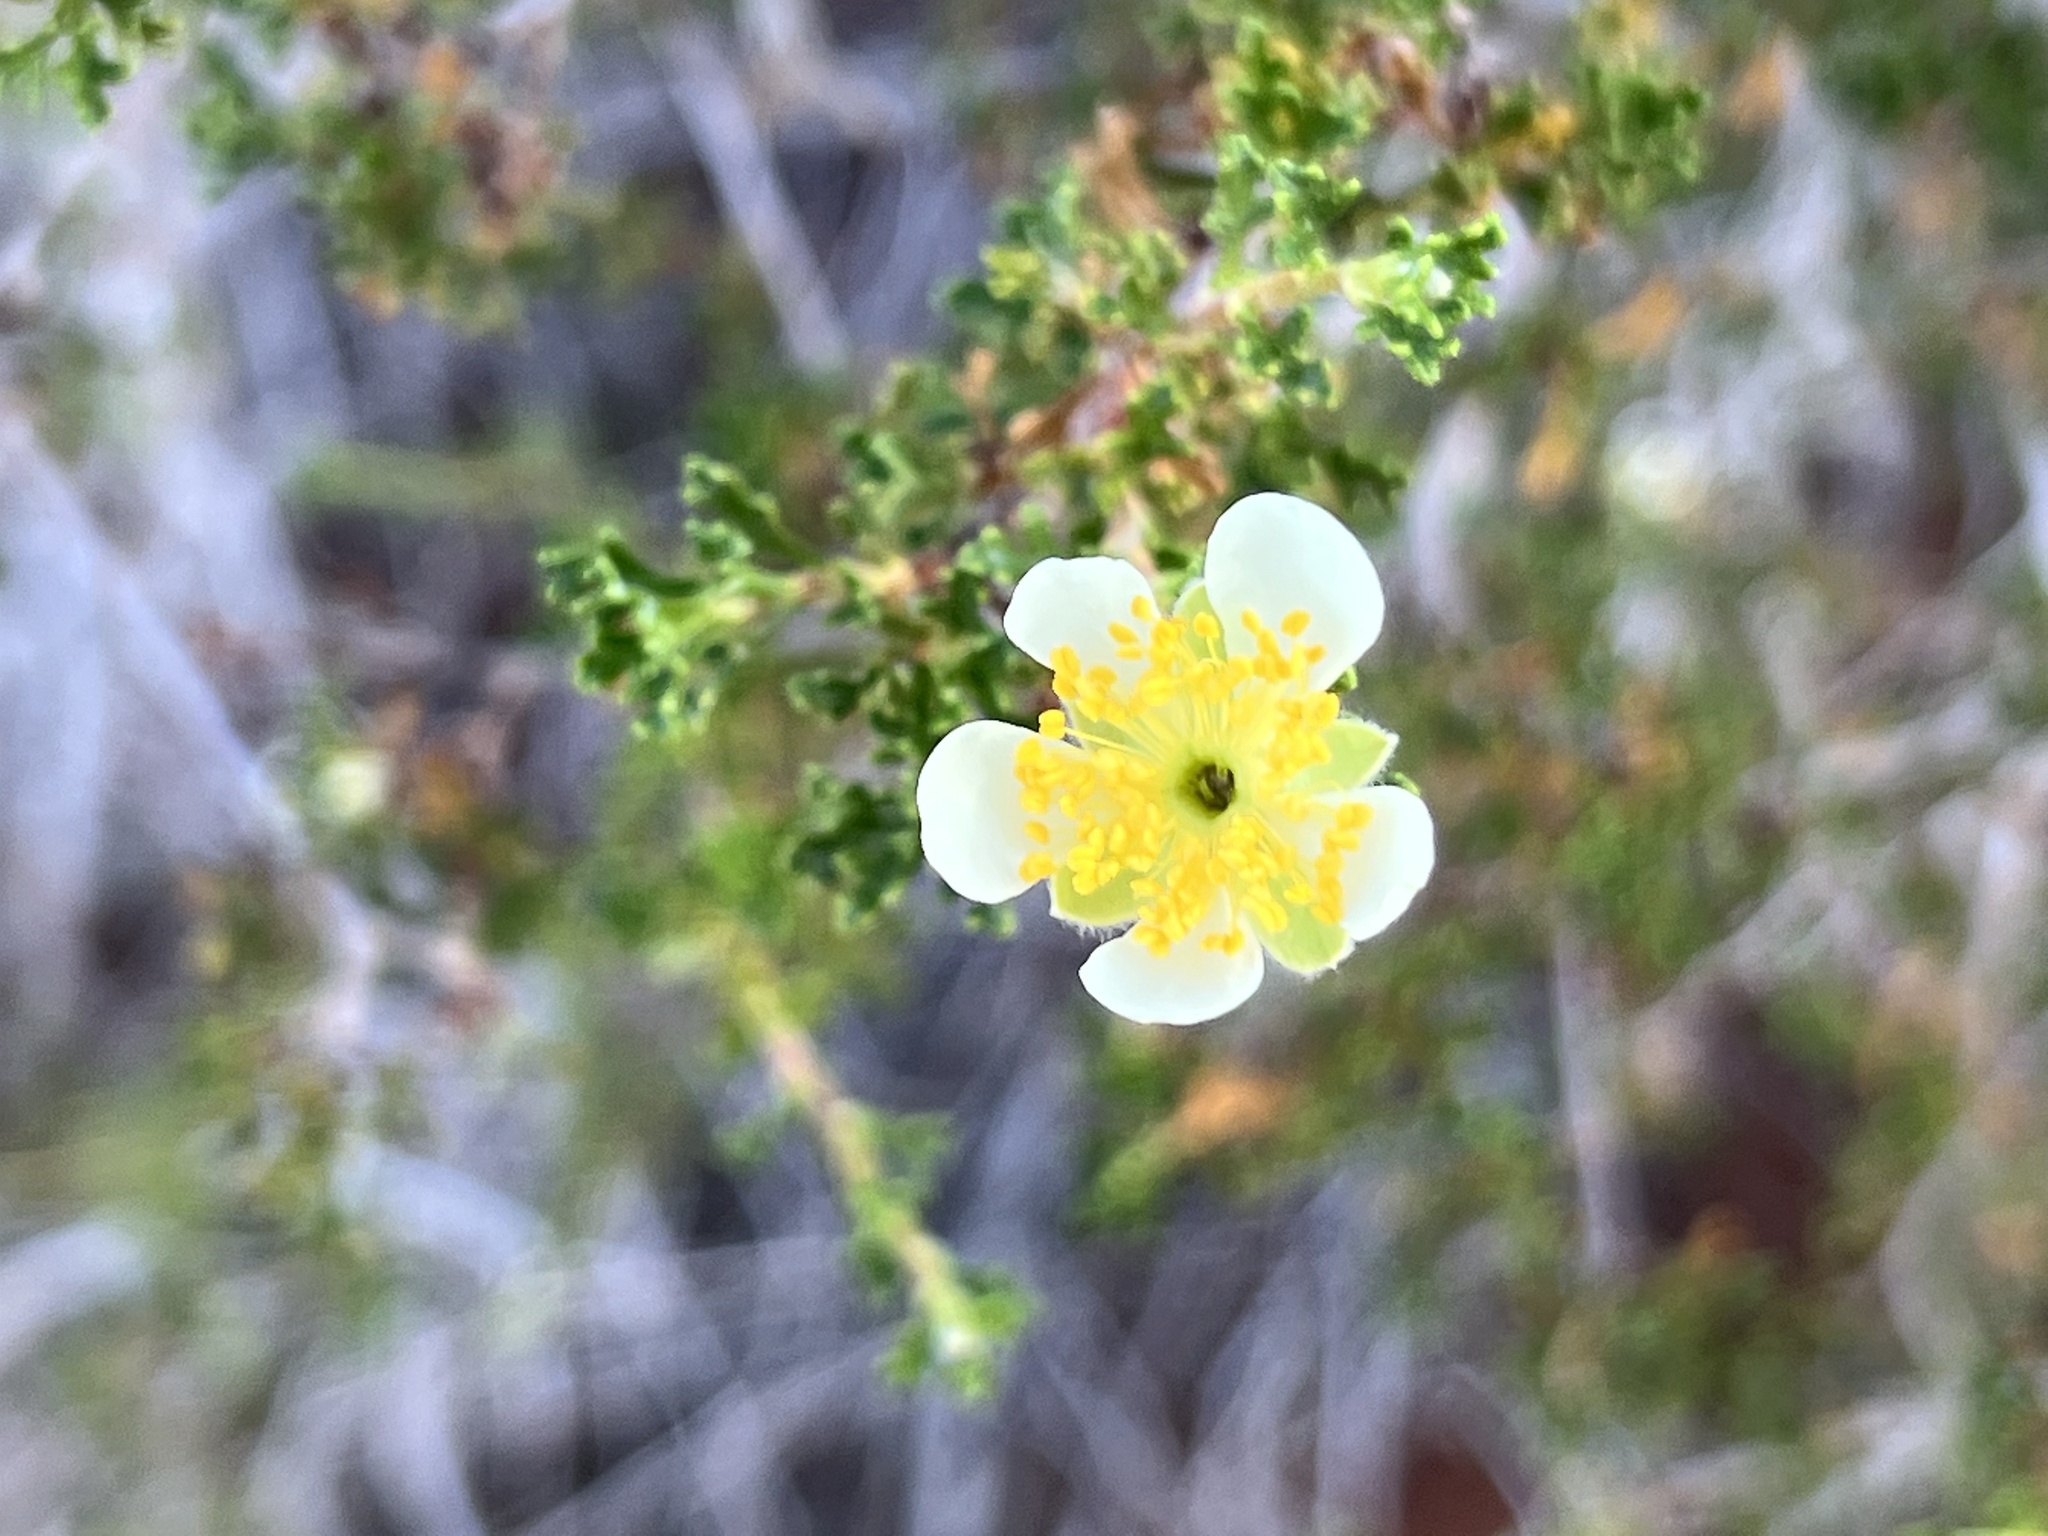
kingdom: Plantae
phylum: Tracheophyta
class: Magnoliopsida
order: Rosales
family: Rosaceae
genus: Purshia
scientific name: Purshia stansburiana
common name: Stansbury's cliffrose
